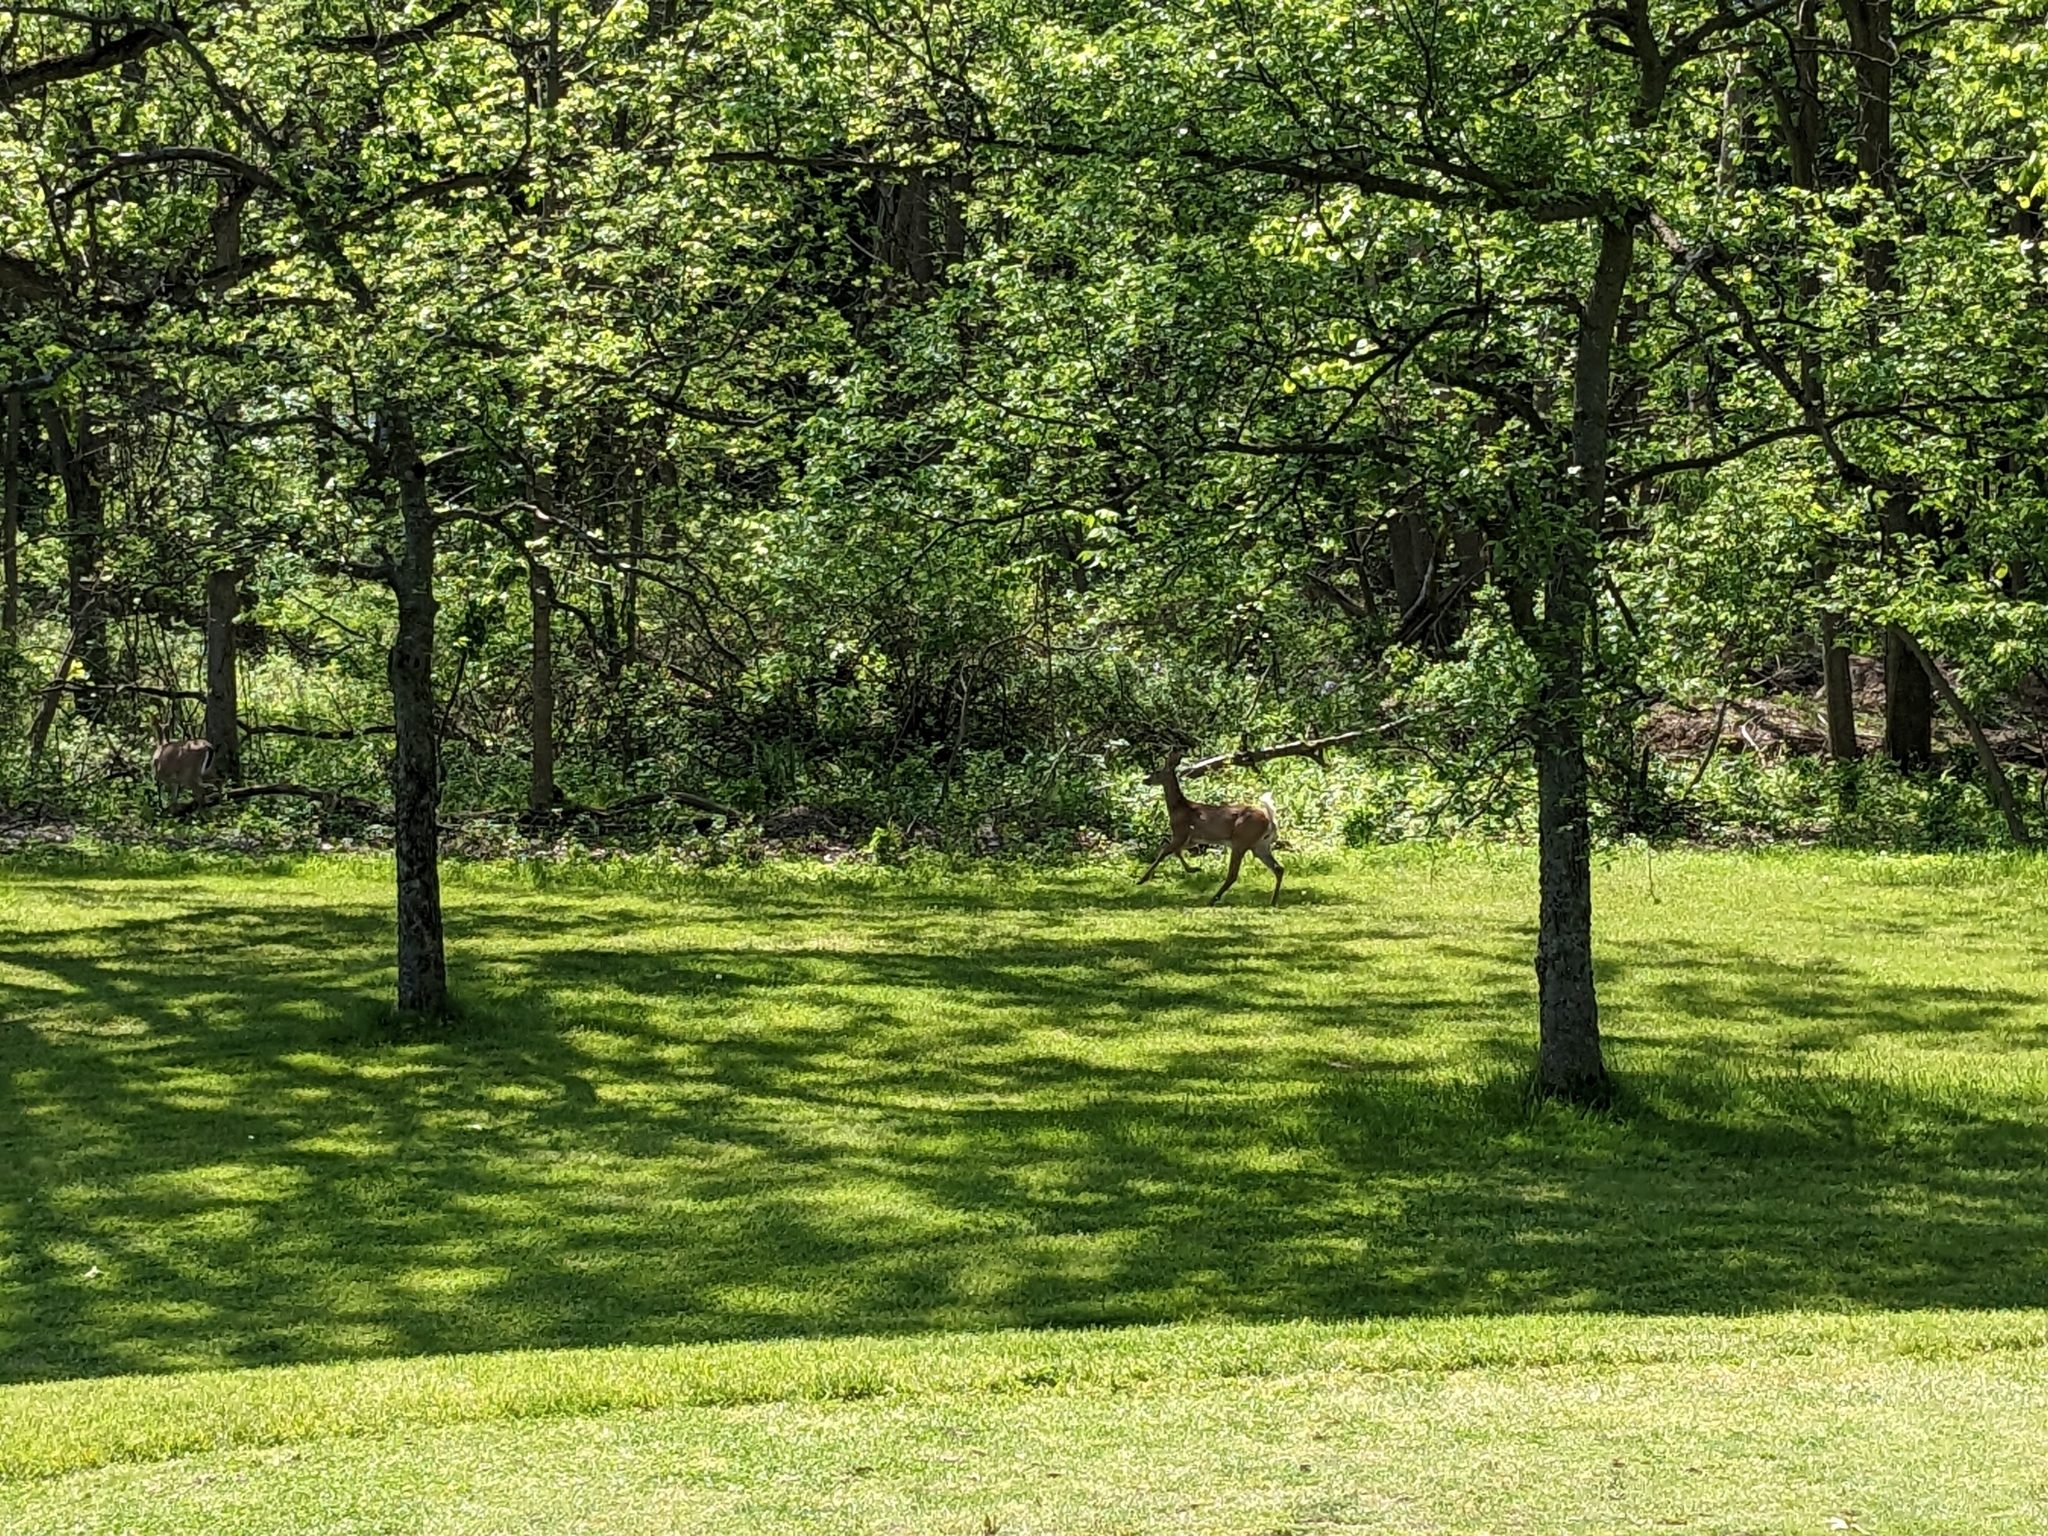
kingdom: Animalia
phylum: Chordata
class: Mammalia
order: Artiodactyla
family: Cervidae
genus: Odocoileus
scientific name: Odocoileus virginianus
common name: White-tailed deer
